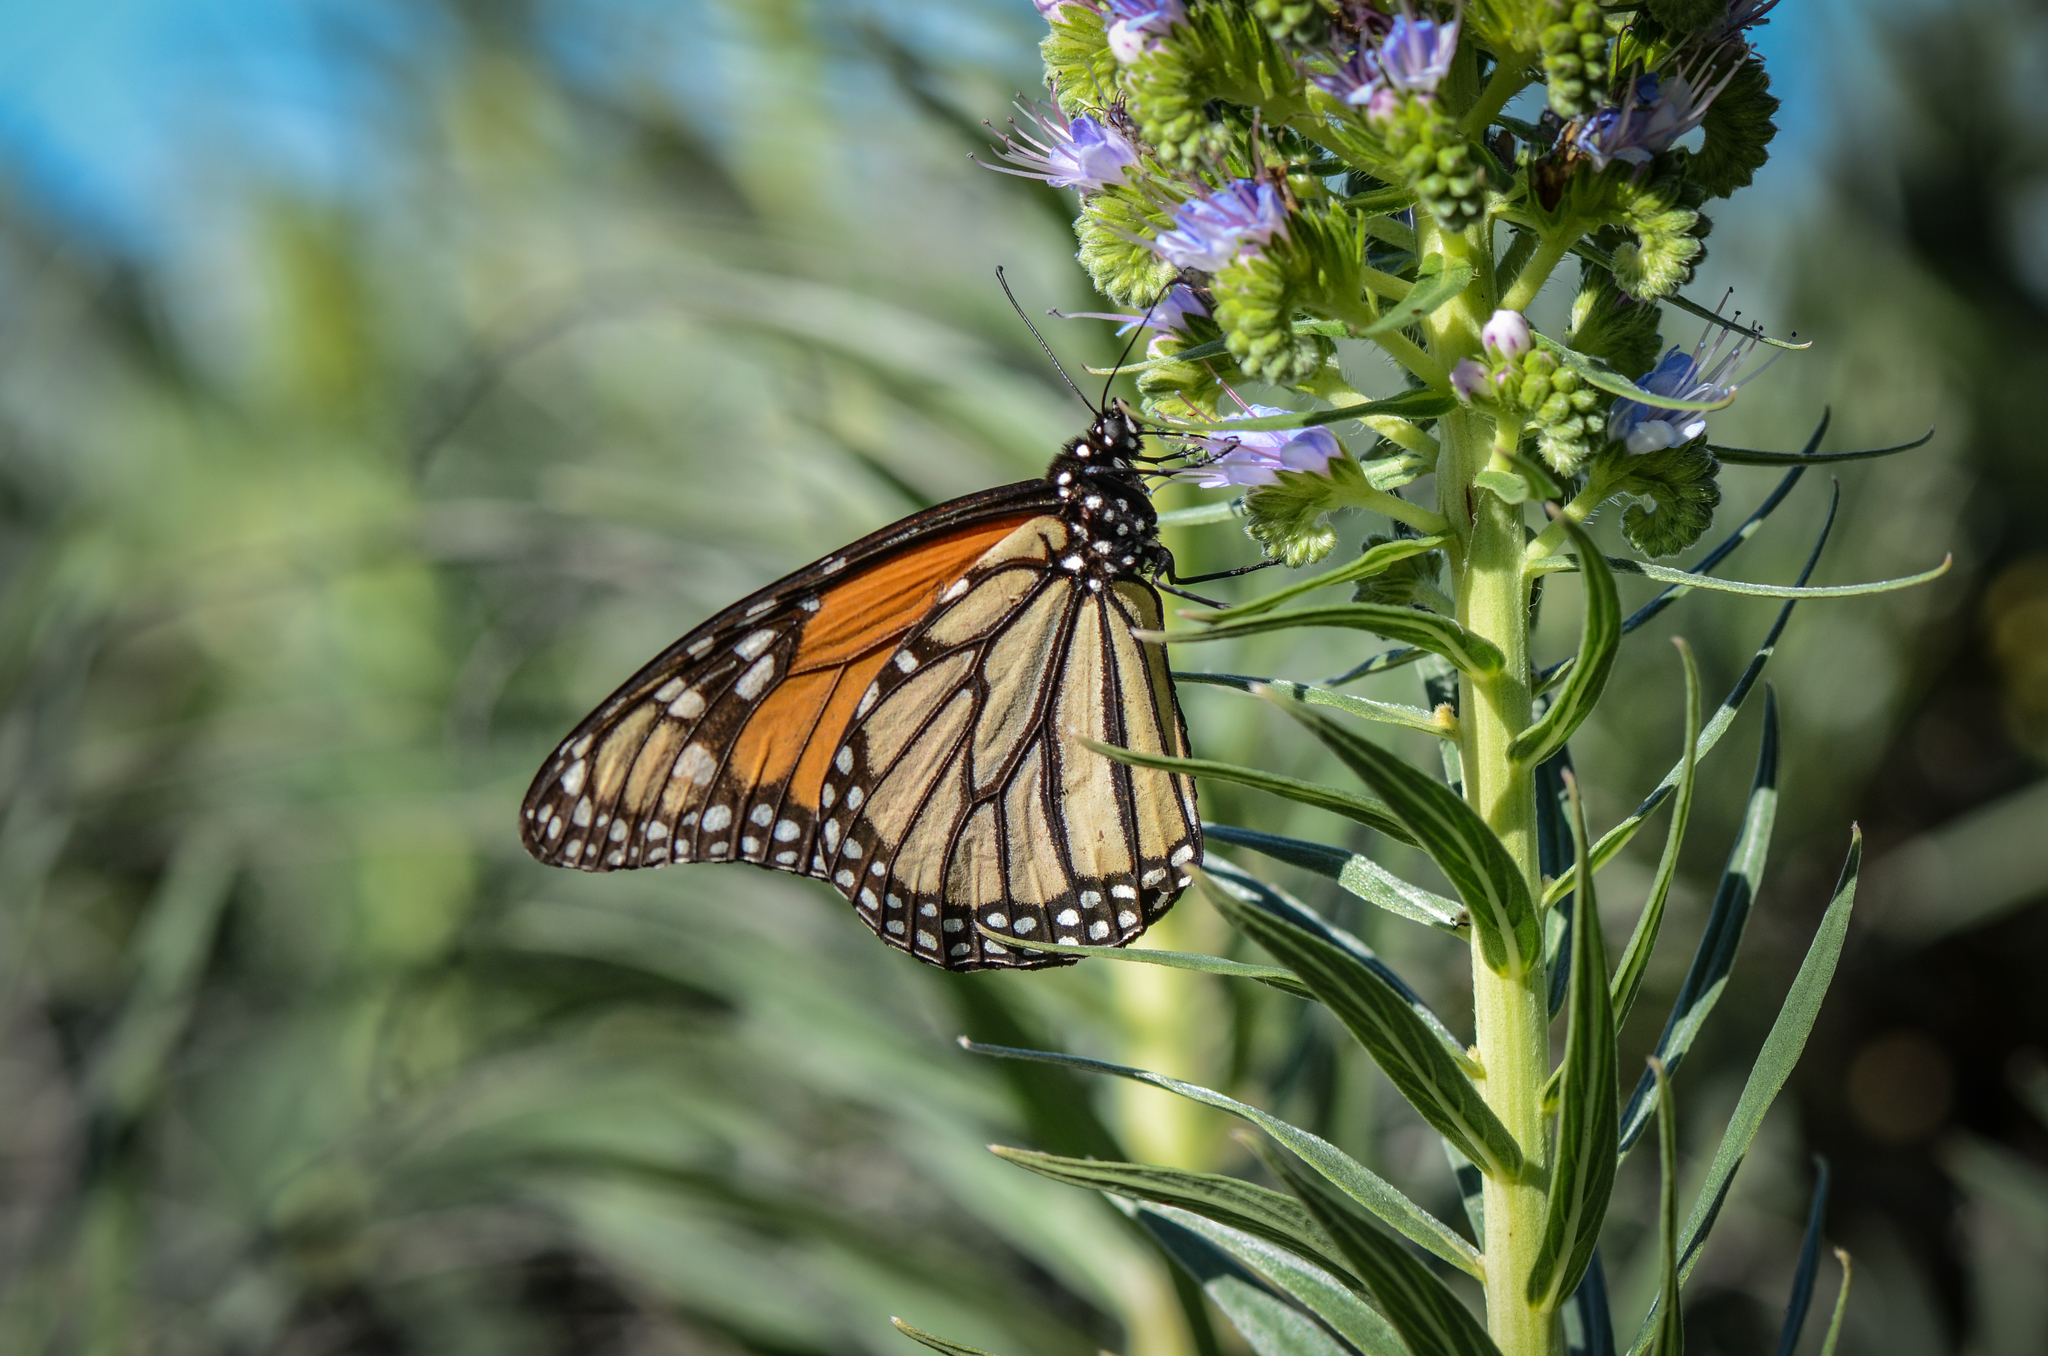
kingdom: Animalia
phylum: Arthropoda
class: Insecta
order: Lepidoptera
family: Nymphalidae
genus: Danaus
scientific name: Danaus plexippus
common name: Monarch
